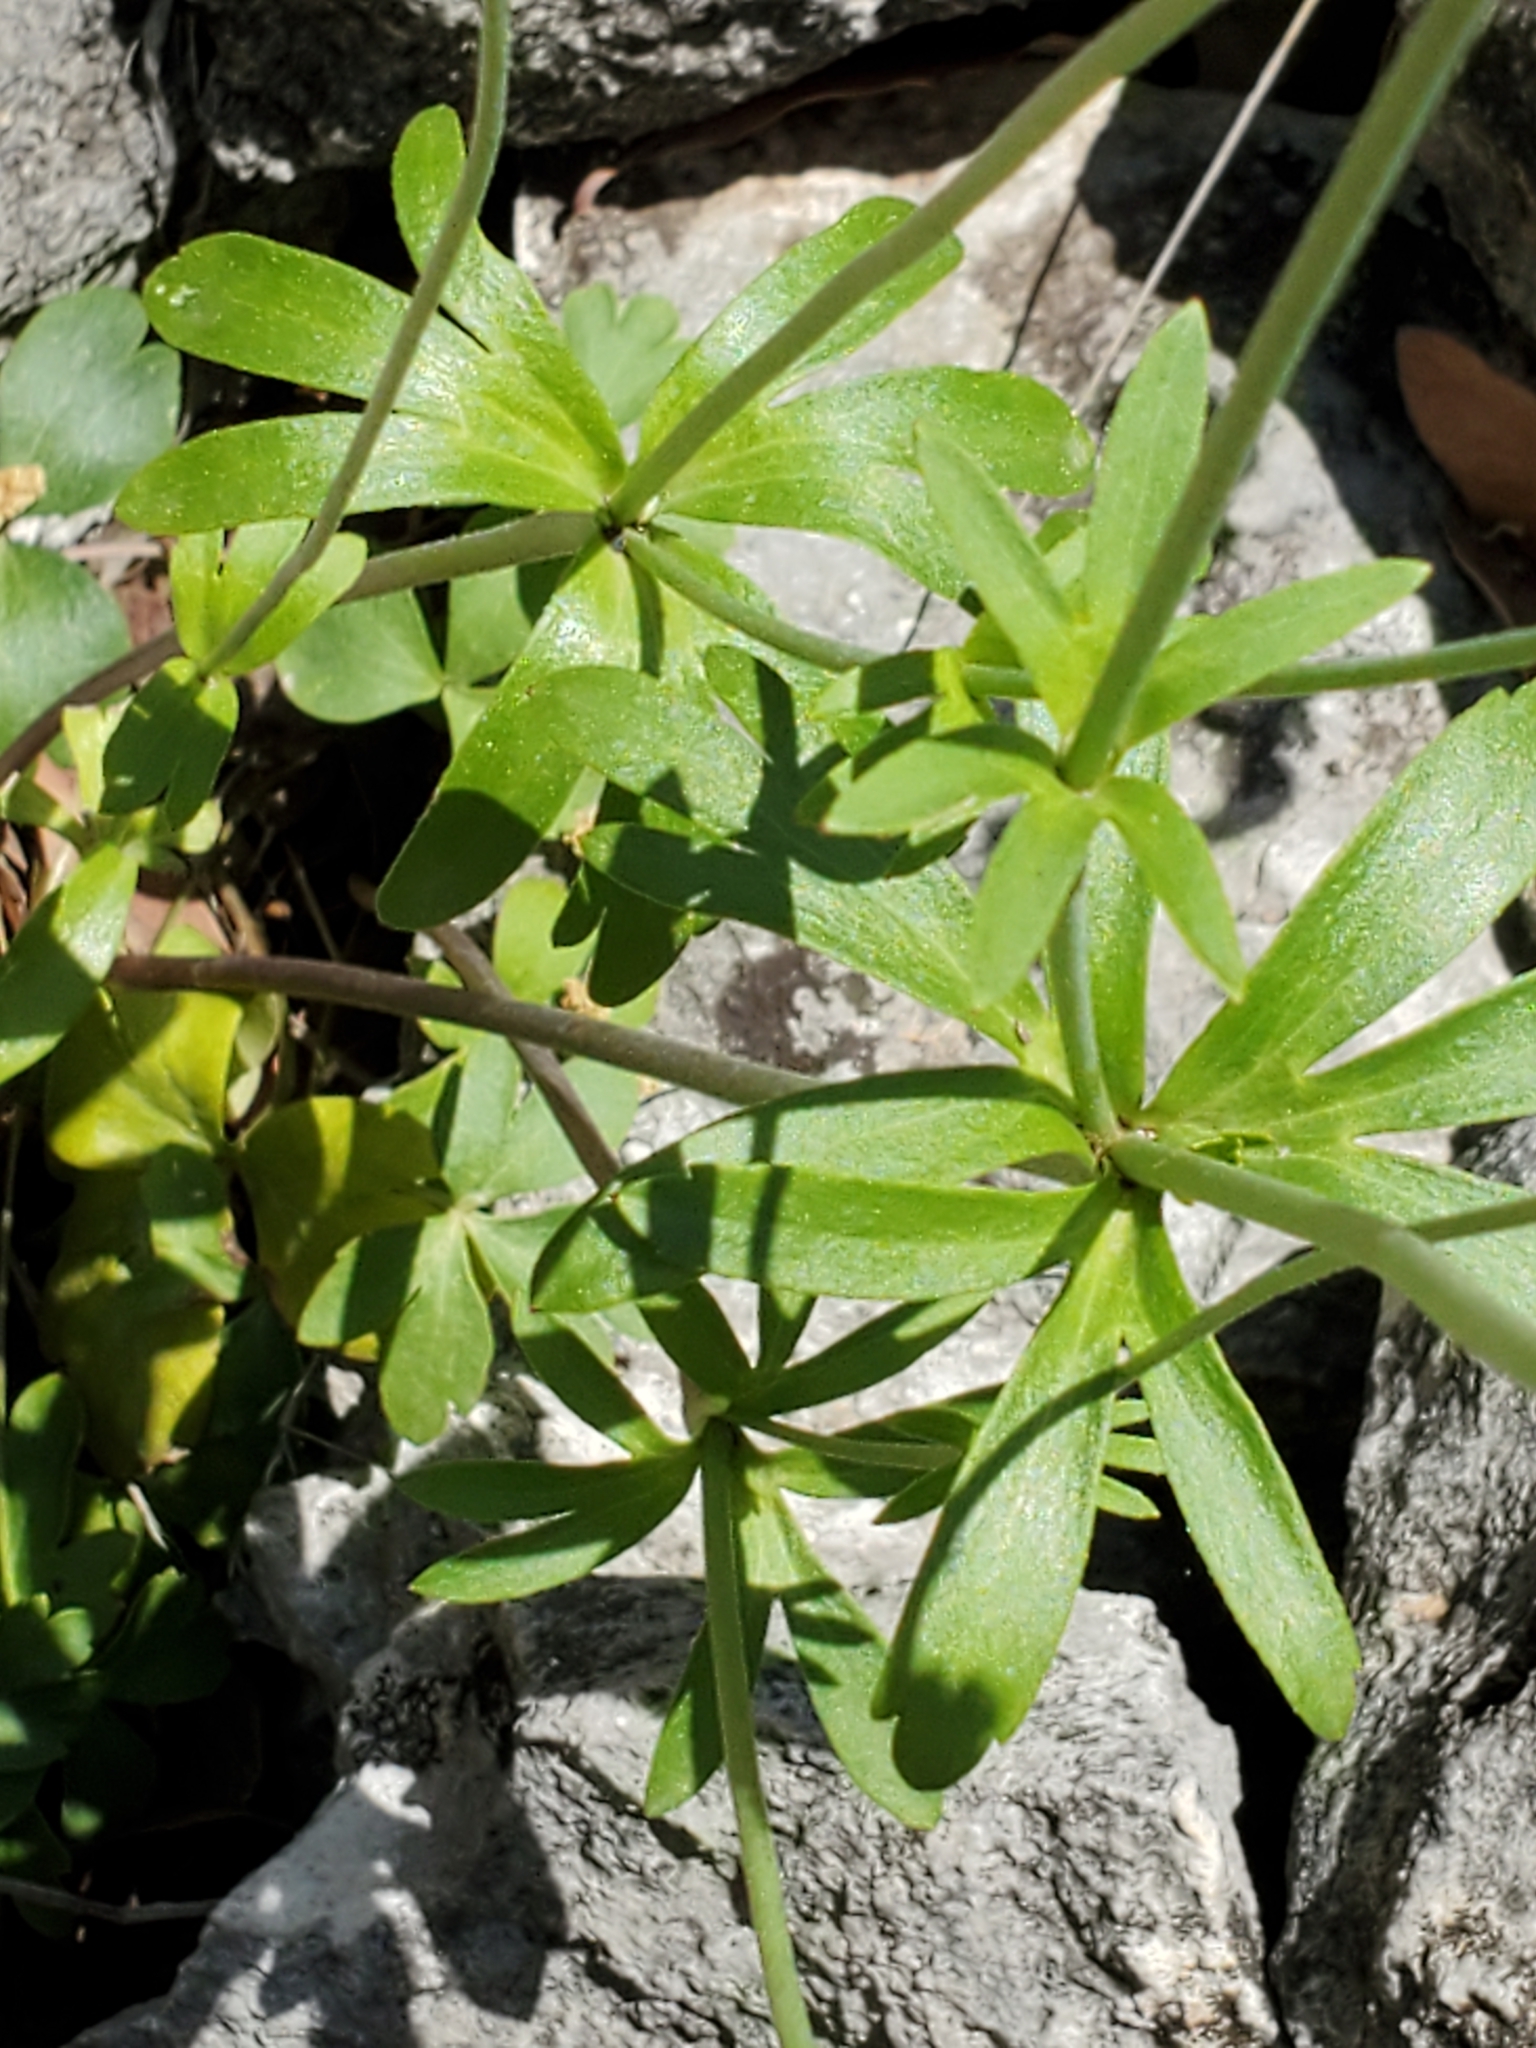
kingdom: Plantae
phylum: Tracheophyta
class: Magnoliopsida
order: Ranunculales
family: Ranunculaceae
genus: Anemone
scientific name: Anemone edwardsiana
